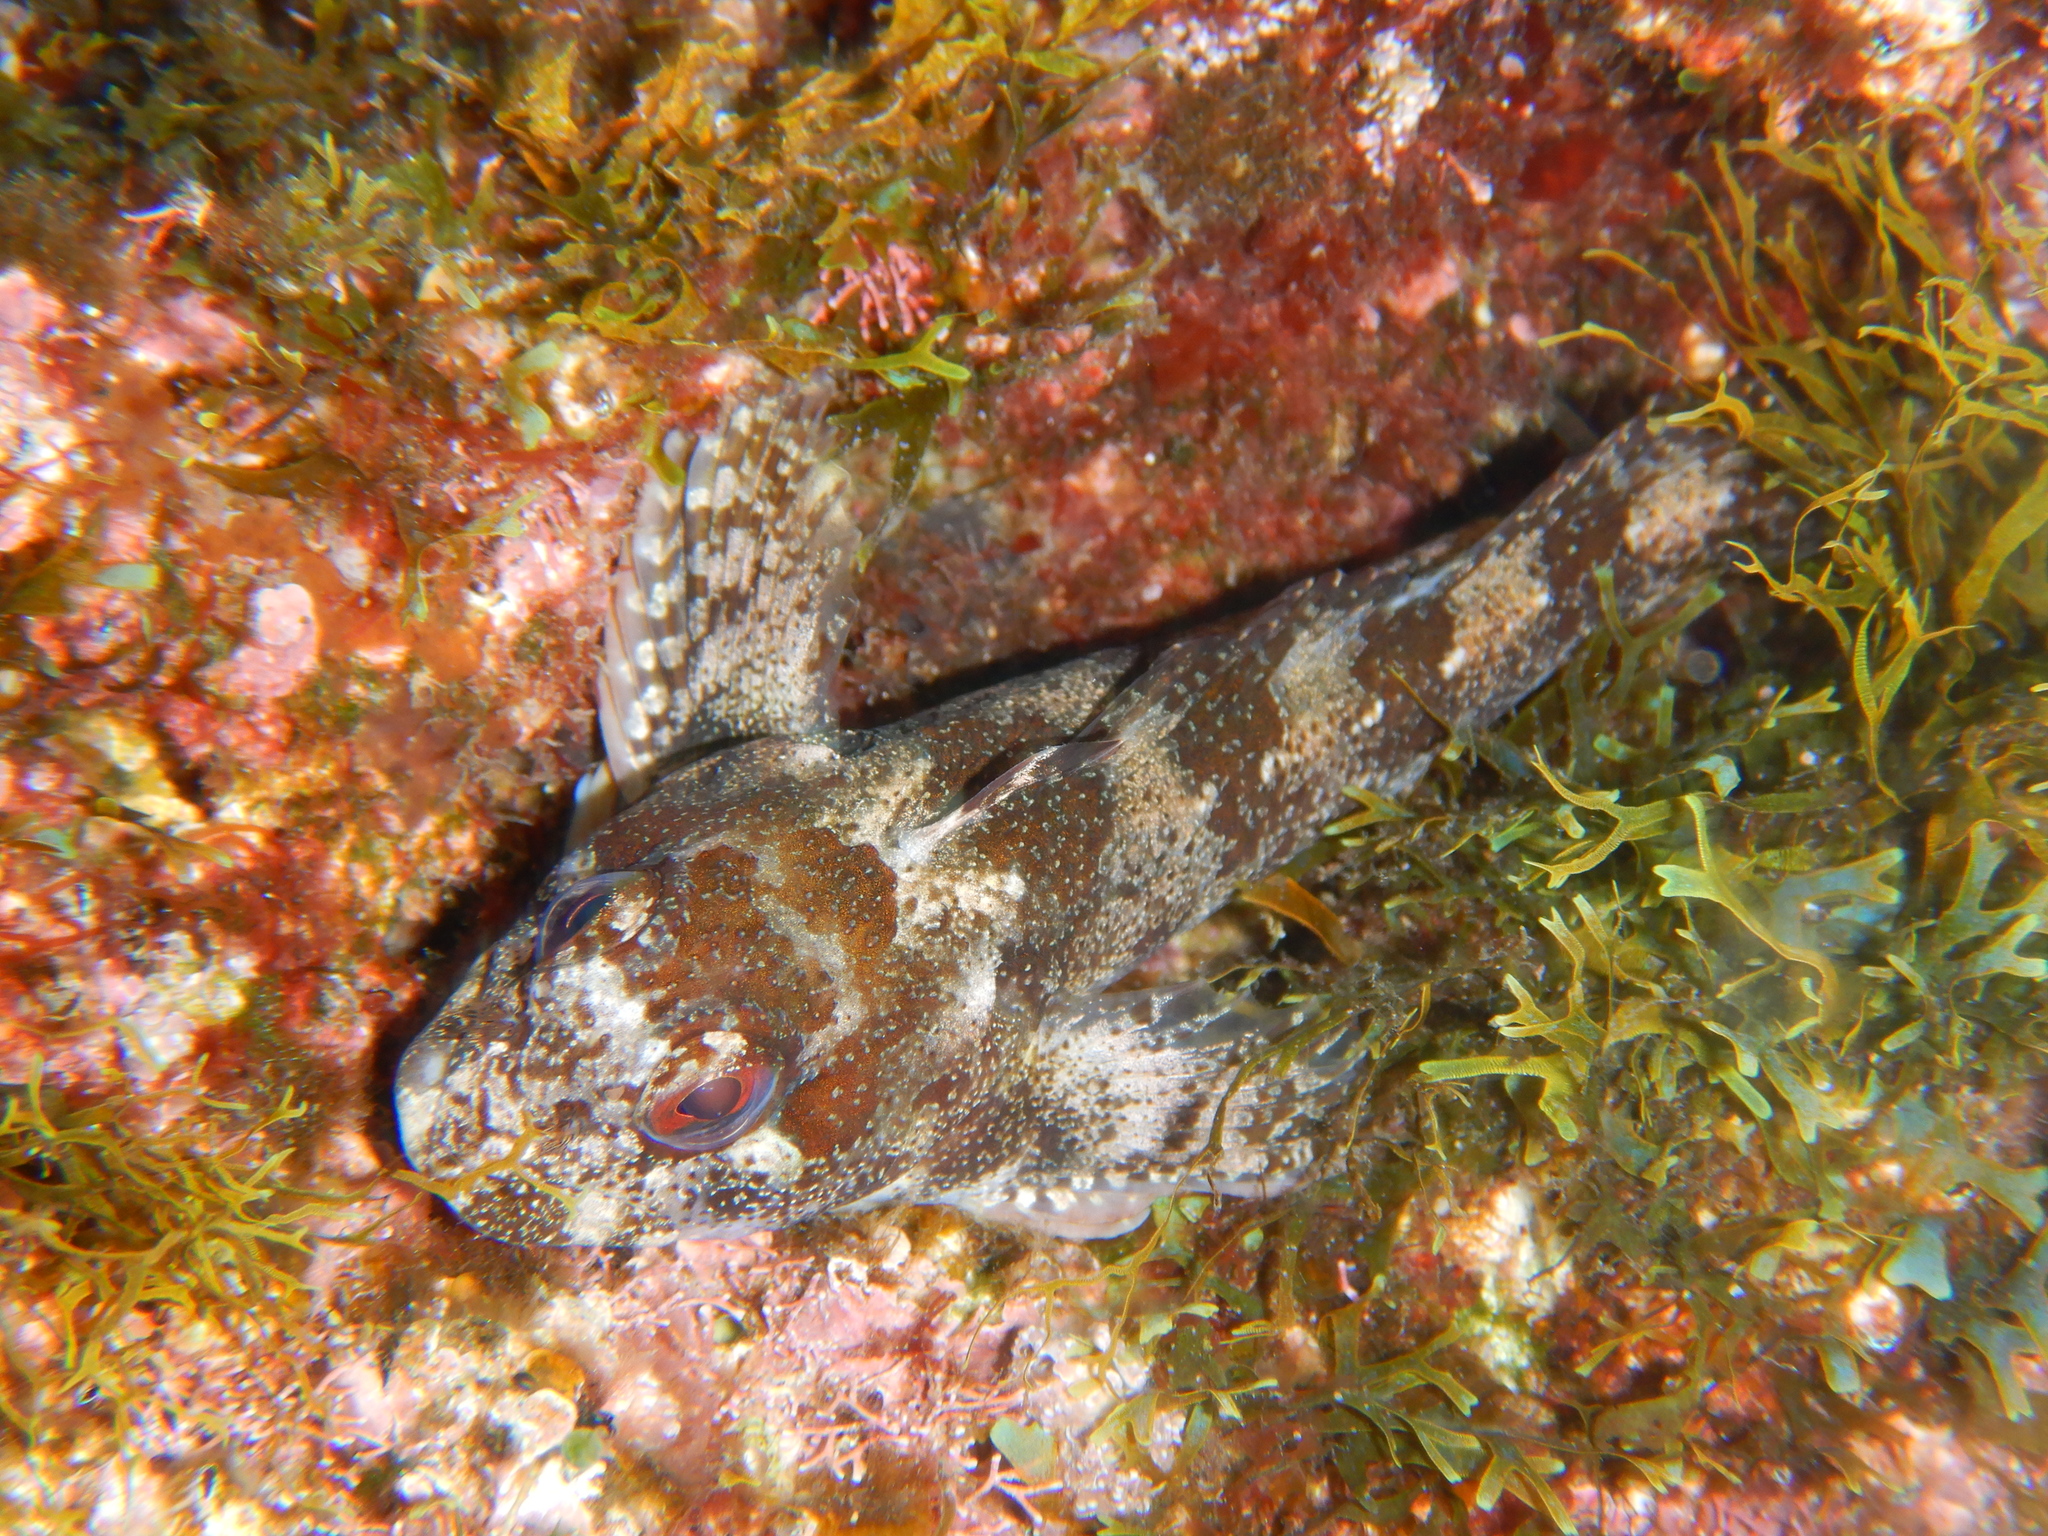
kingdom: Animalia
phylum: Chordata
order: Perciformes
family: Blenniidae
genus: Lipophrys
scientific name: Lipophrys trigloides
